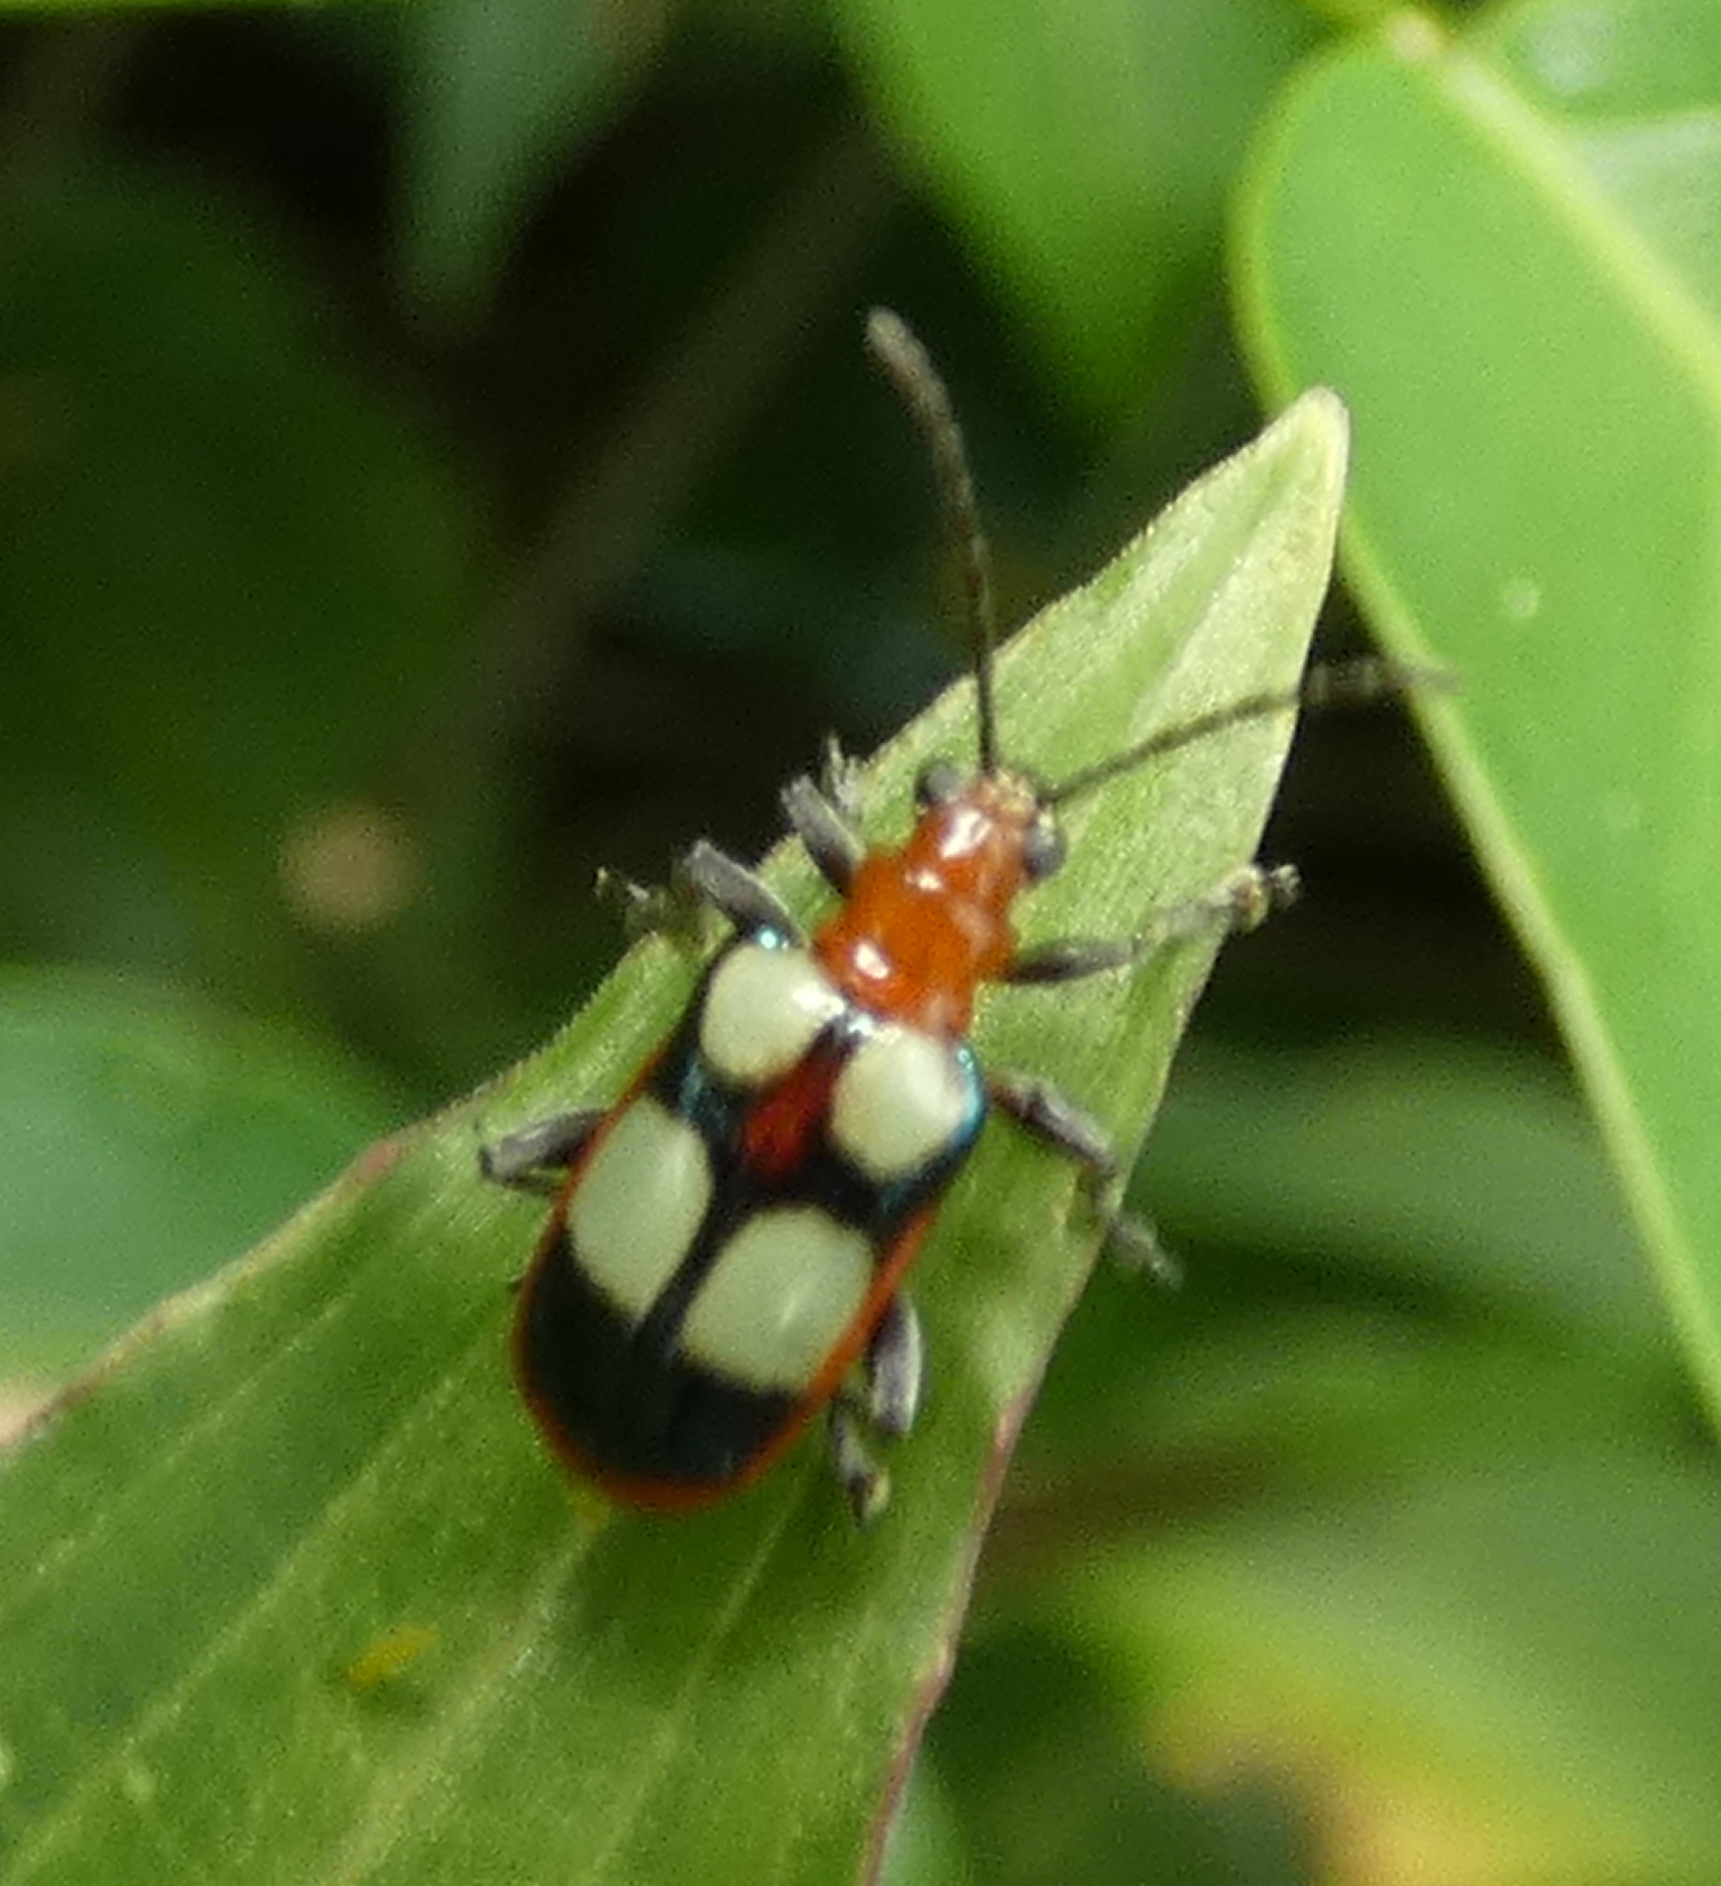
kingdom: Animalia
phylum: Arthropoda
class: Insecta
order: Coleoptera
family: Chrysomelidae
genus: Neolema
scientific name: Neolema
